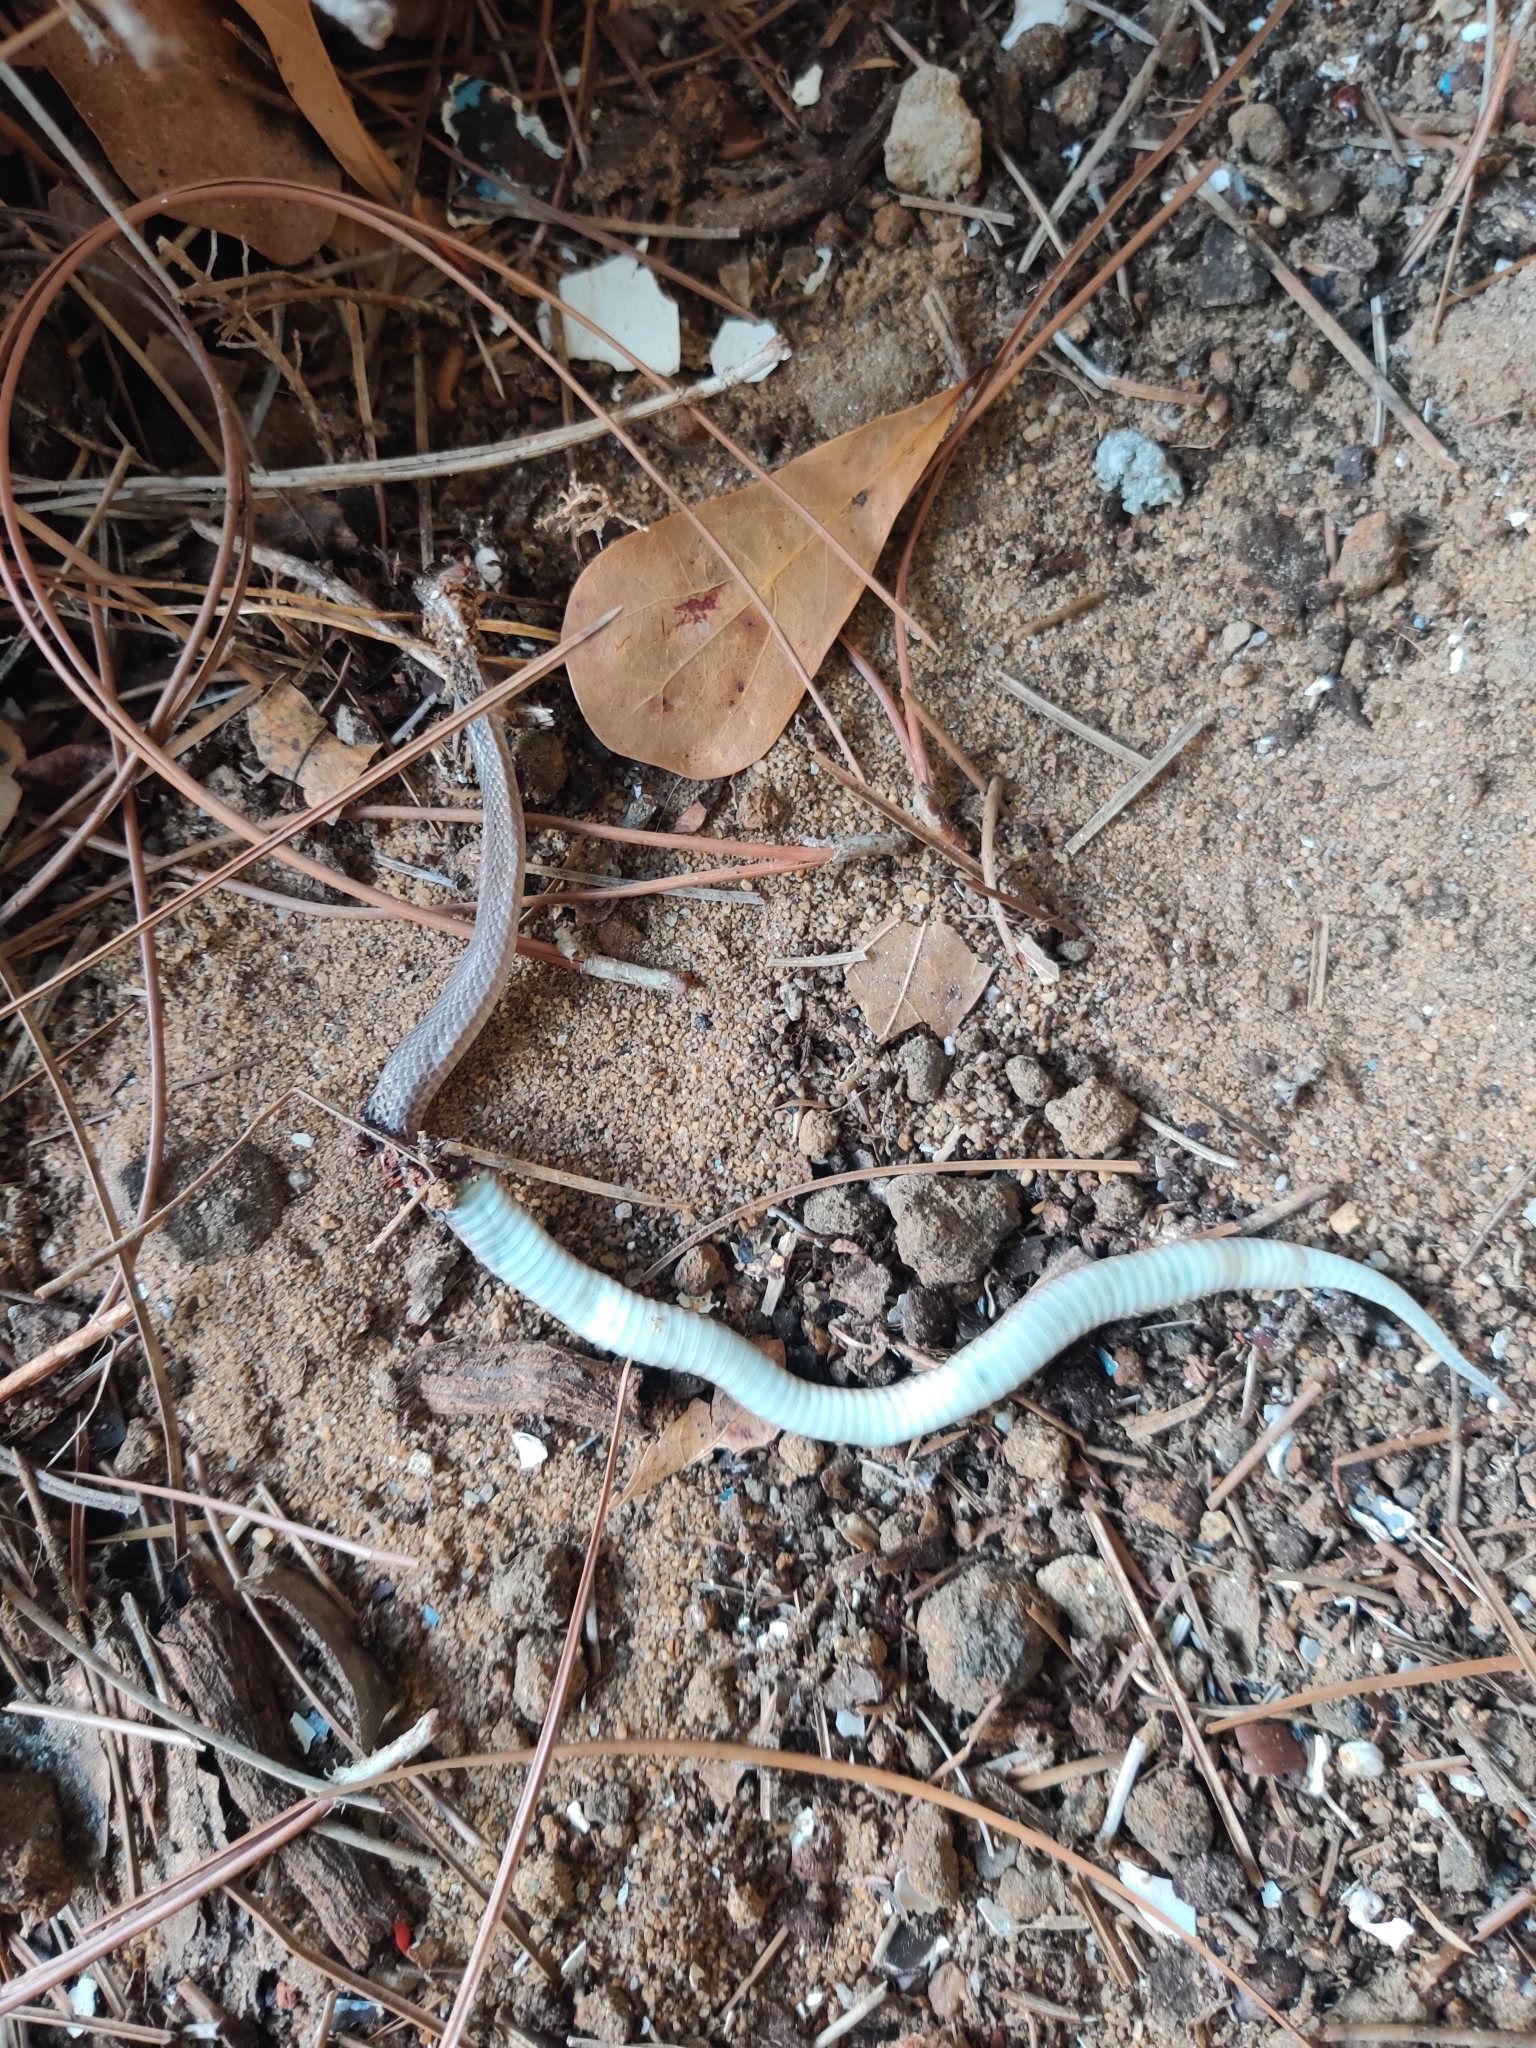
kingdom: Animalia
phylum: Chordata
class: Squamata
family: Colubridae
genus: Virginia
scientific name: Virginia valeriae
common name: Smooth earth snake
